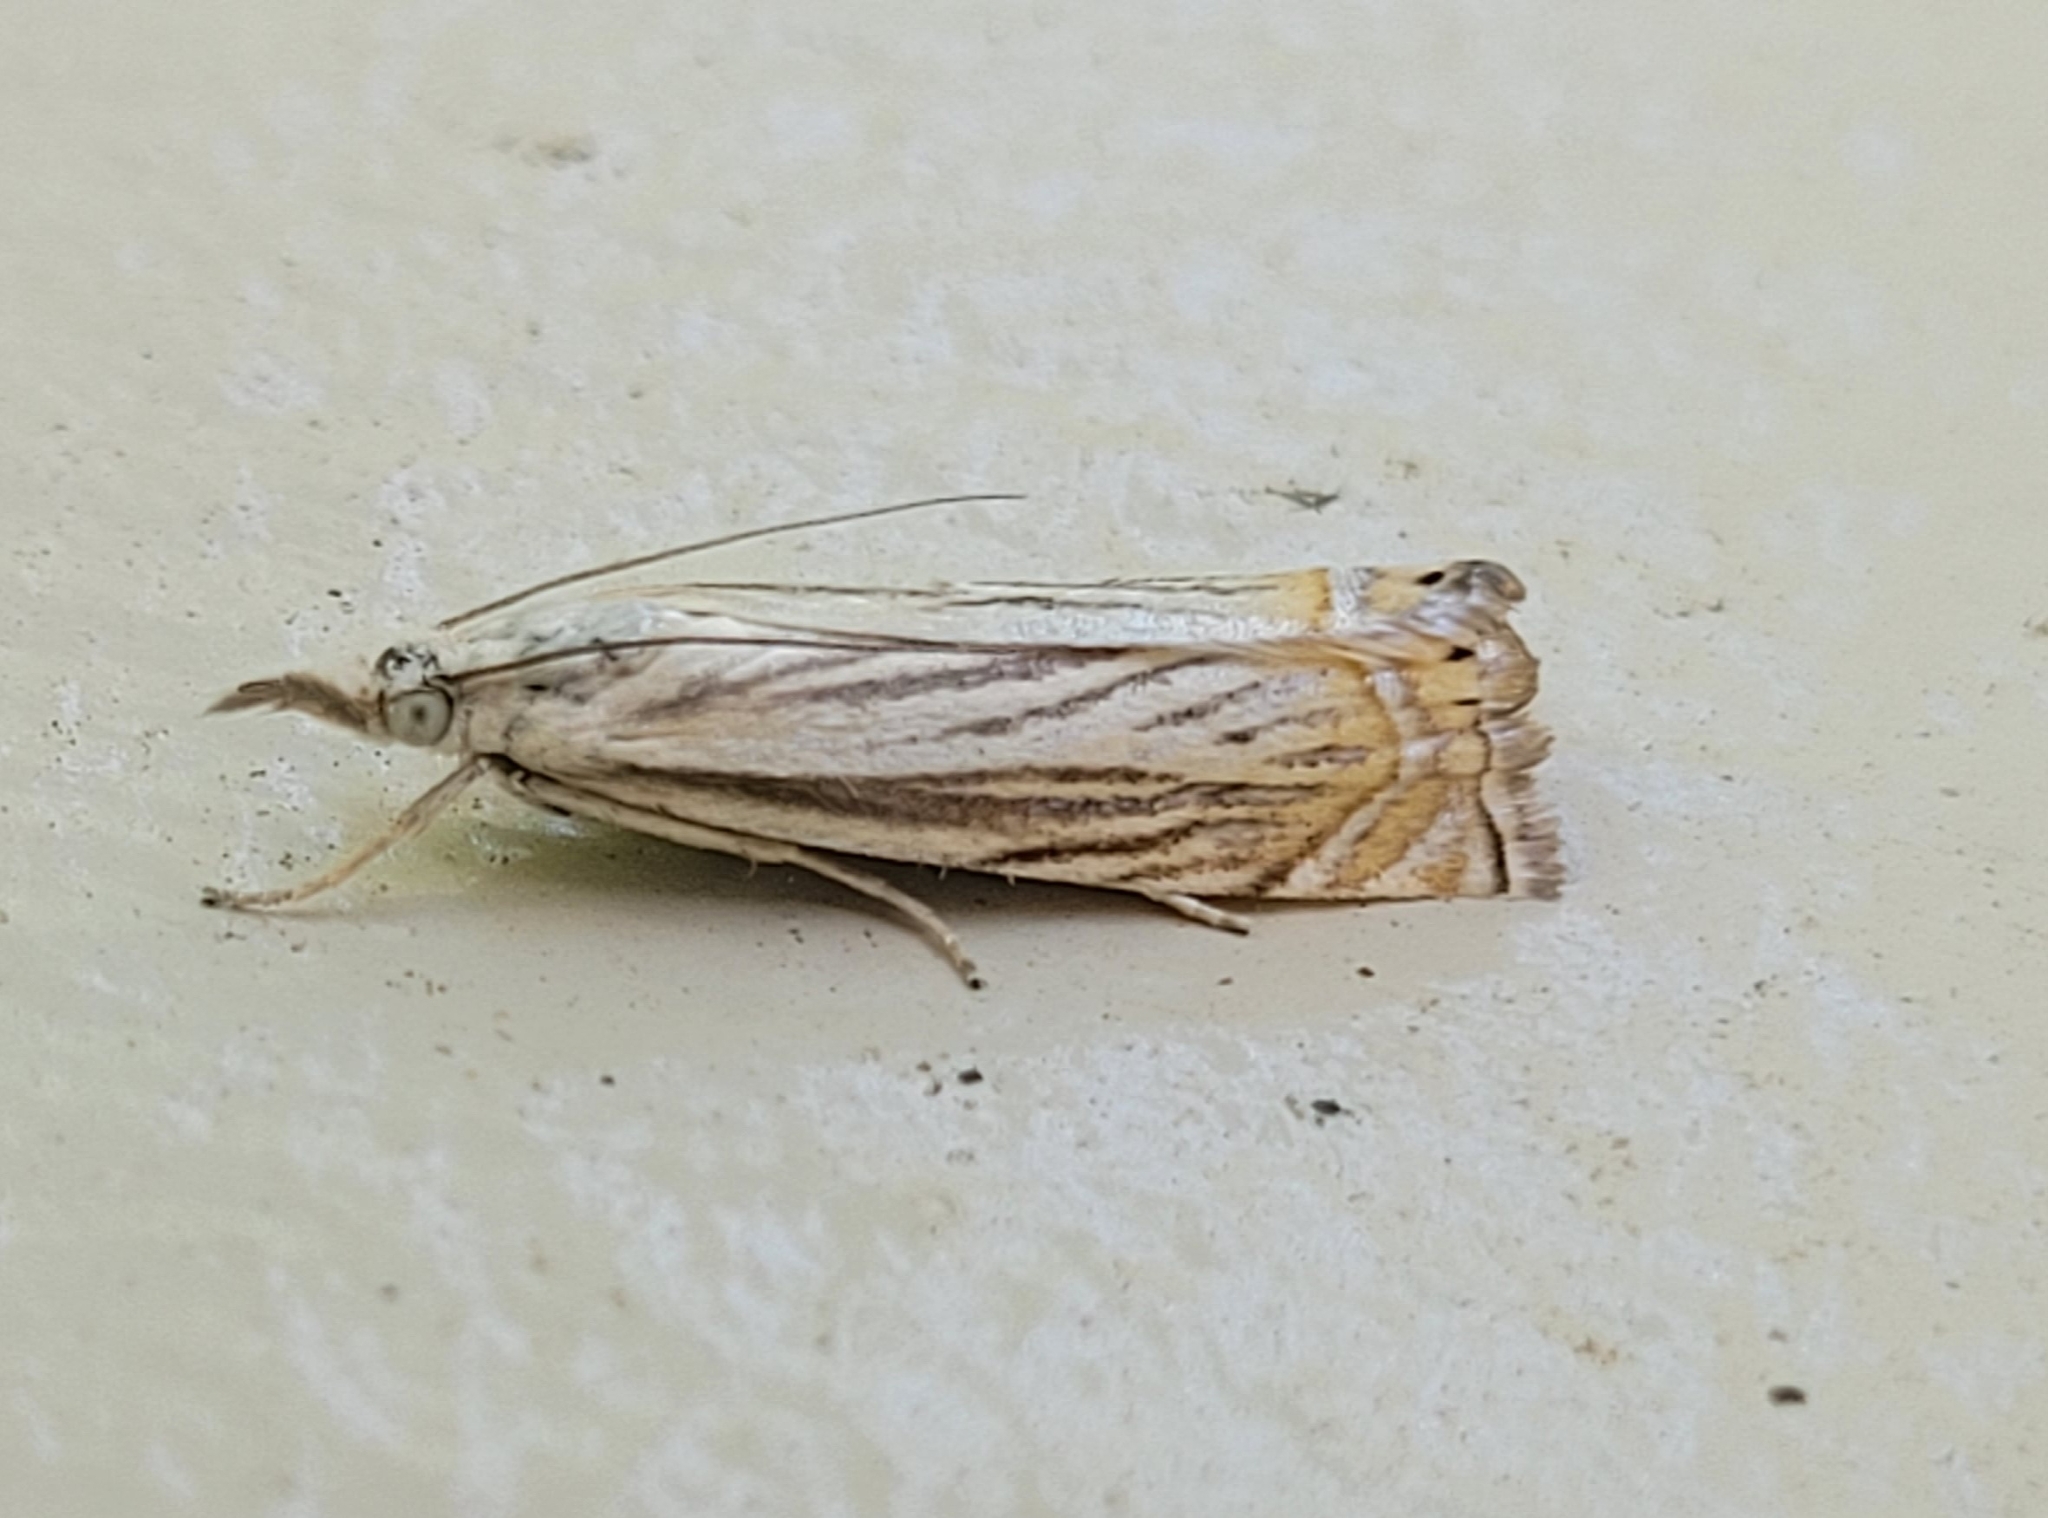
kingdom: Animalia
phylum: Arthropoda
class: Insecta
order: Lepidoptera
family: Crambidae
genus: Chrysoteuchia
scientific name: Chrysoteuchia topiarius
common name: Topiary grass-veneer
